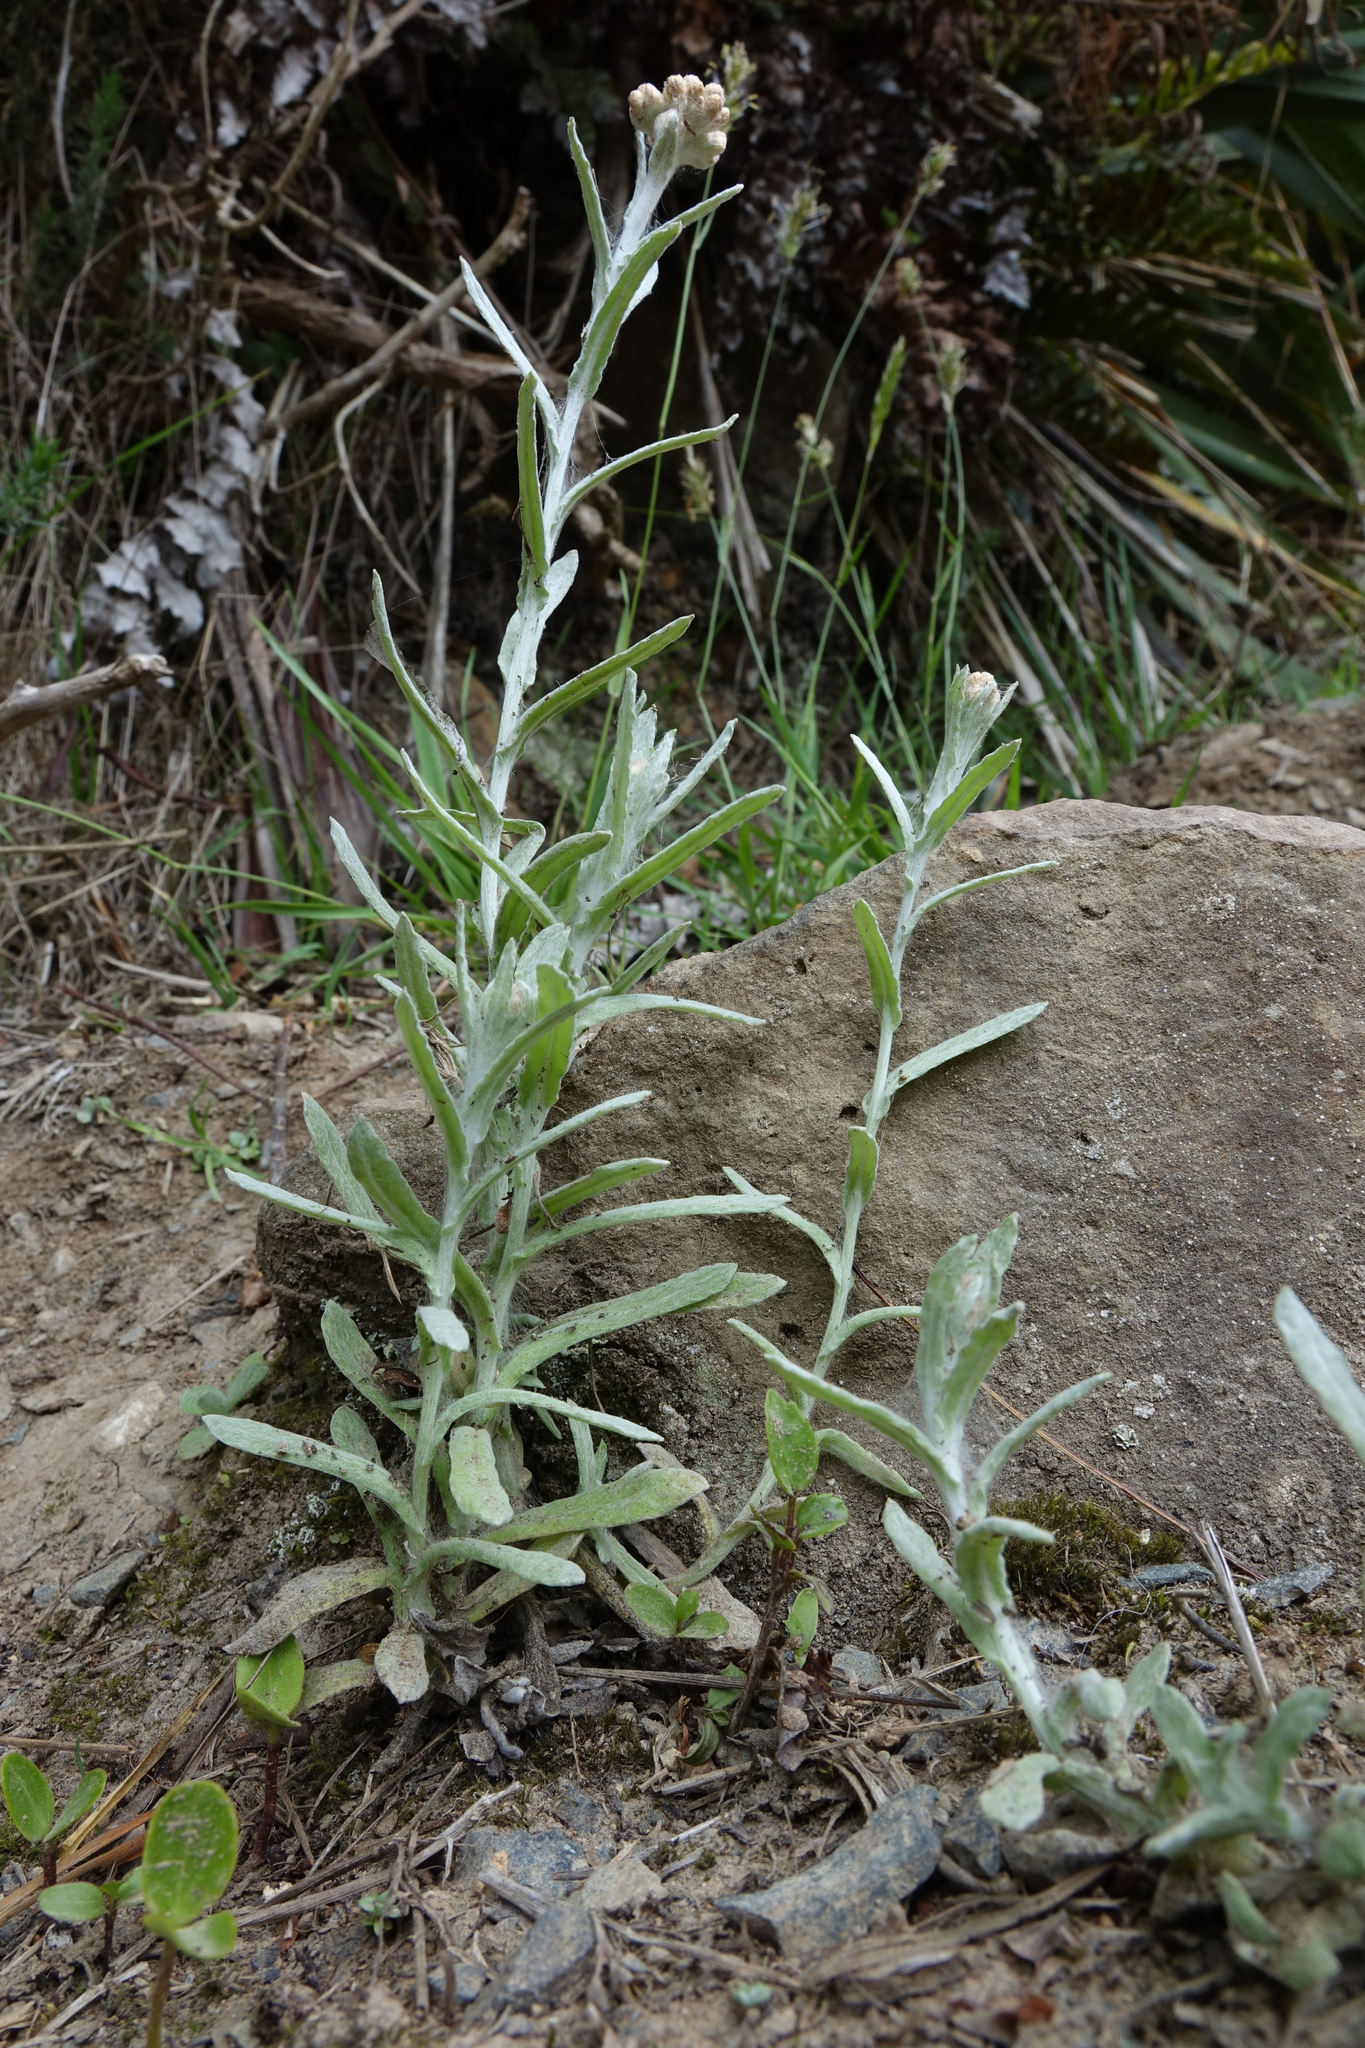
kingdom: Plantae
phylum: Tracheophyta
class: Magnoliopsida
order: Asterales
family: Asteraceae
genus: Helichrysum
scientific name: Helichrysum luteoalbum
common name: Daisy
